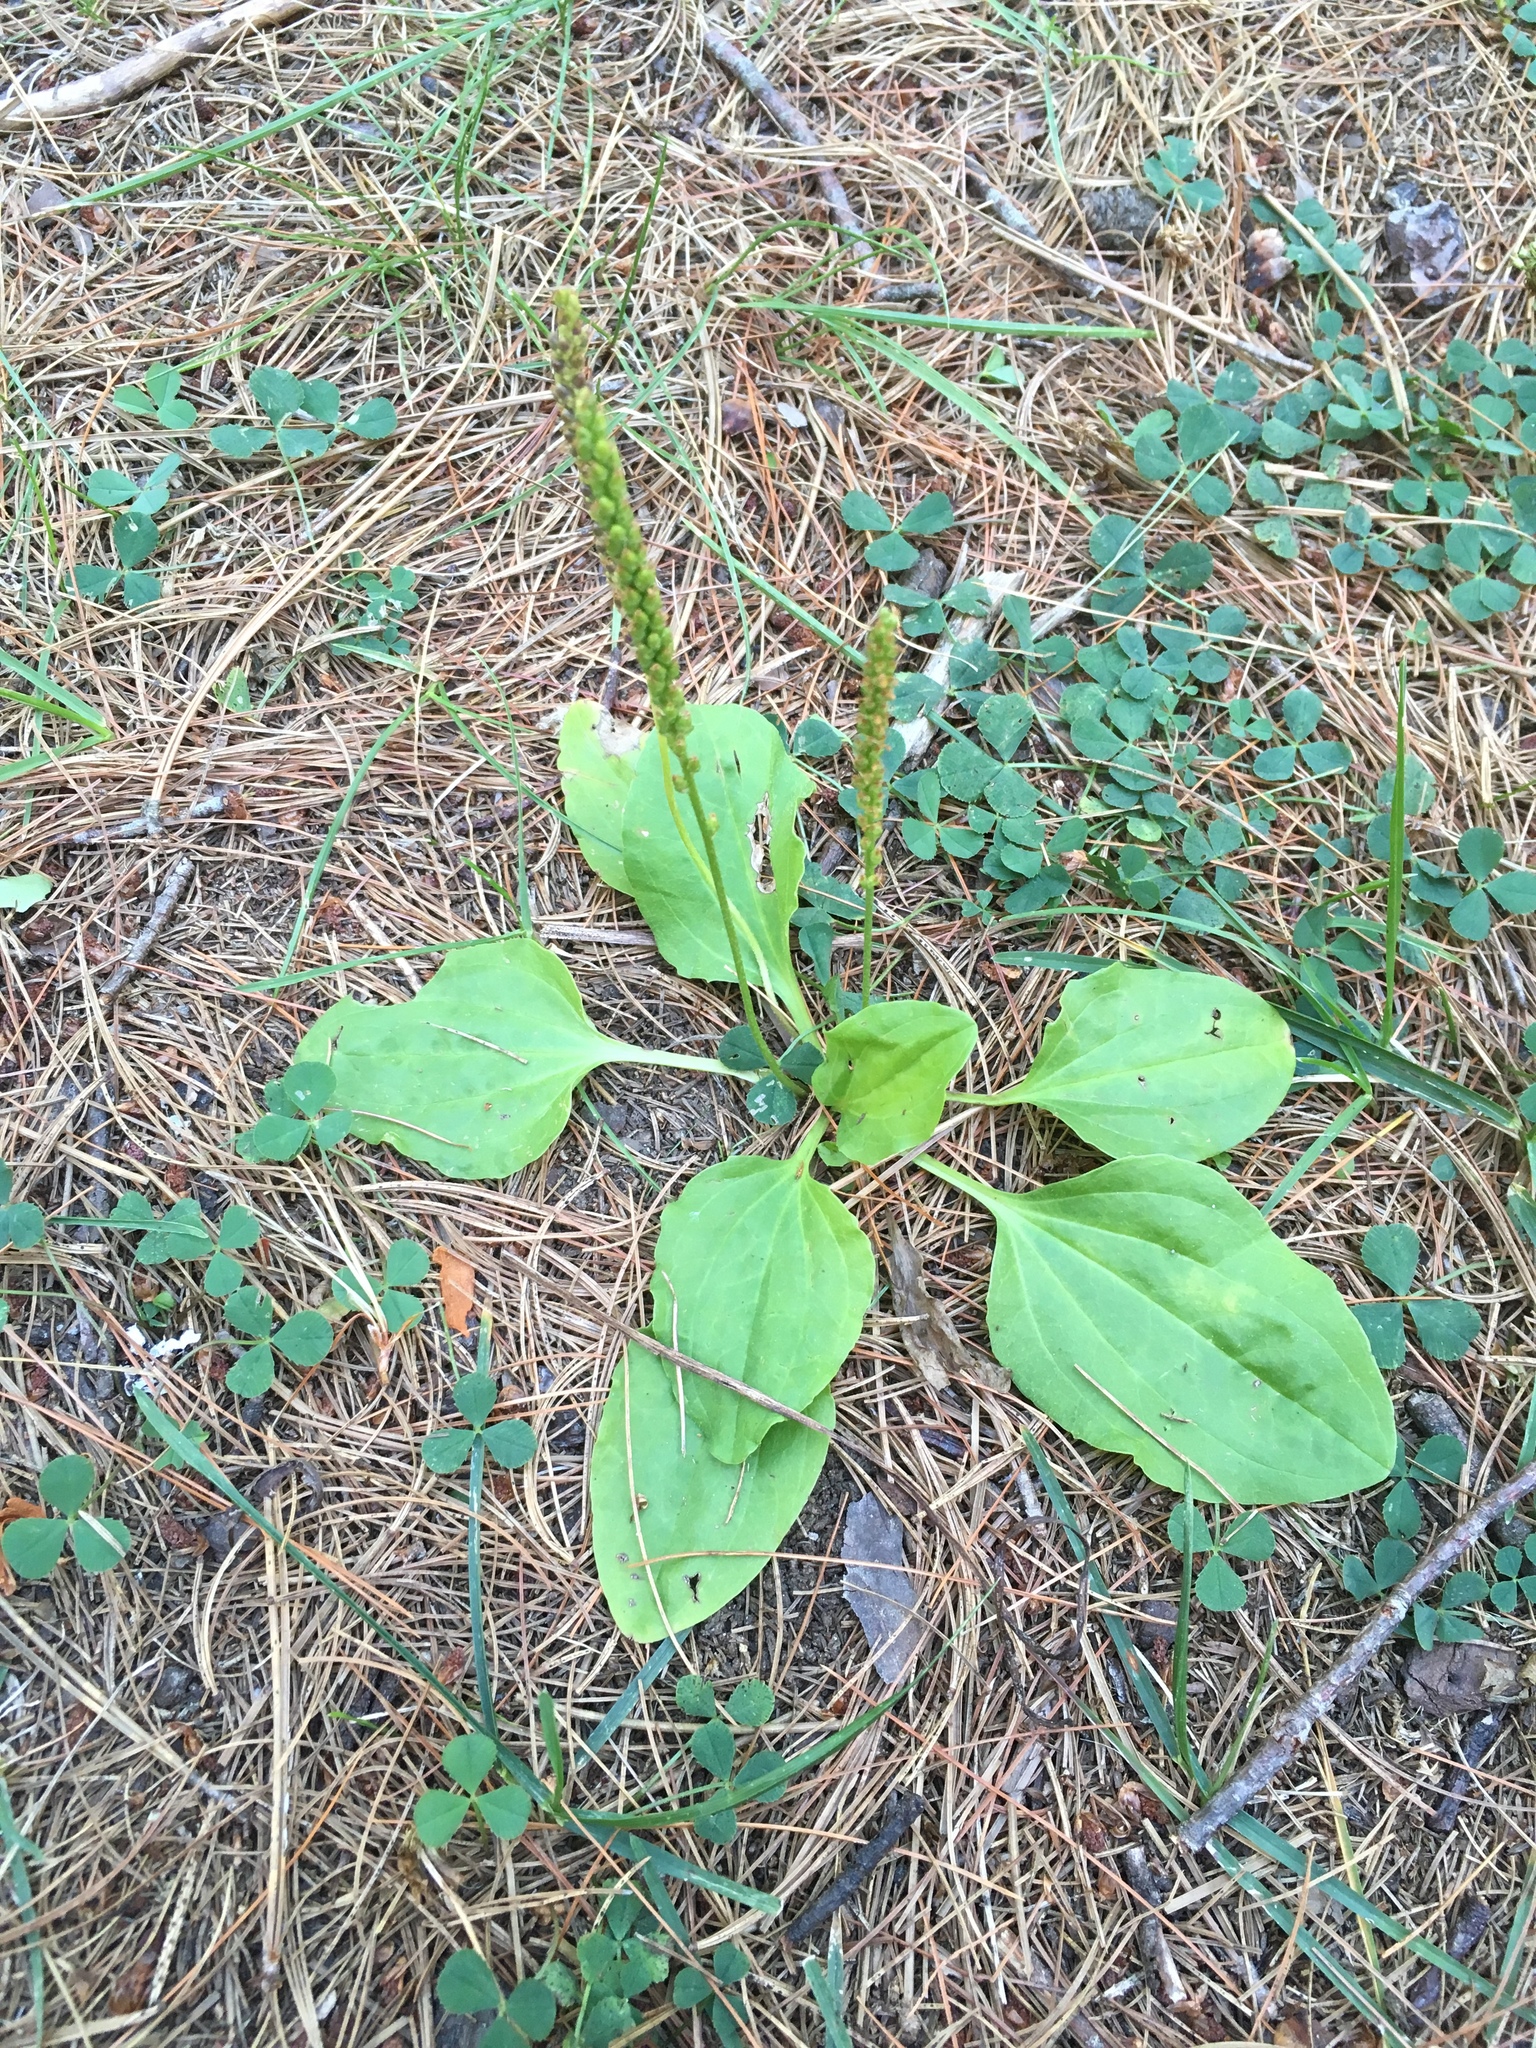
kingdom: Plantae
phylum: Tracheophyta
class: Magnoliopsida
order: Lamiales
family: Plantaginaceae
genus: Plantago
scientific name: Plantago major
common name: Common plantain
